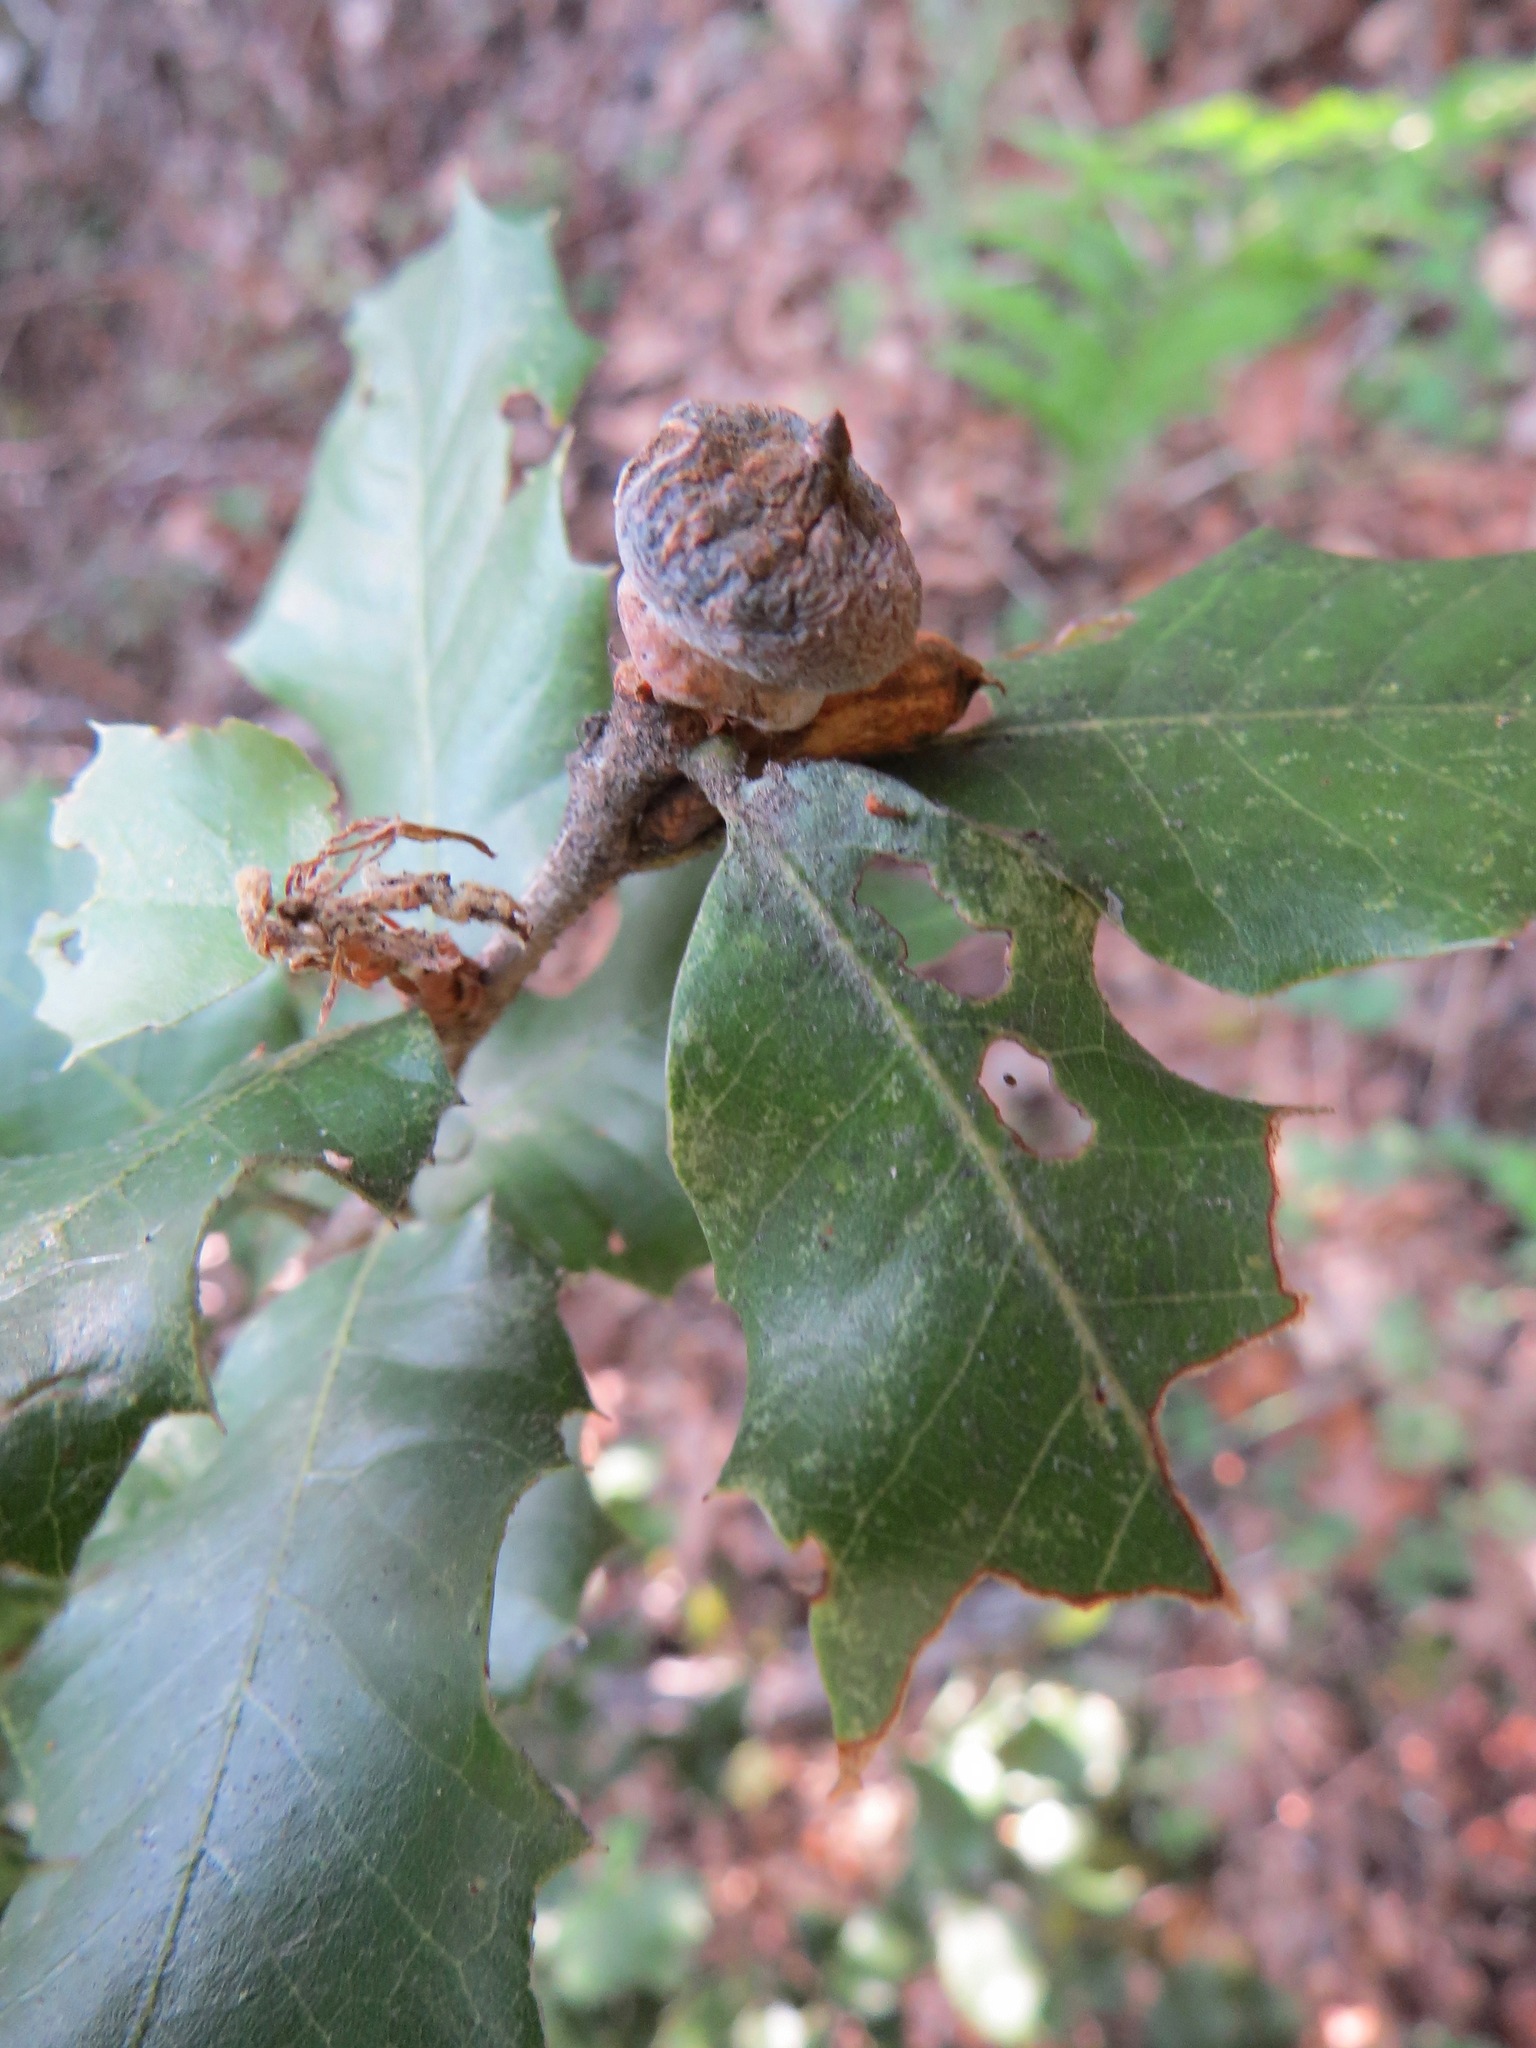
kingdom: Animalia
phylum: Arthropoda
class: Insecta
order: Hymenoptera
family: Cynipidae
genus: Heteroecus
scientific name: Heteroecus
